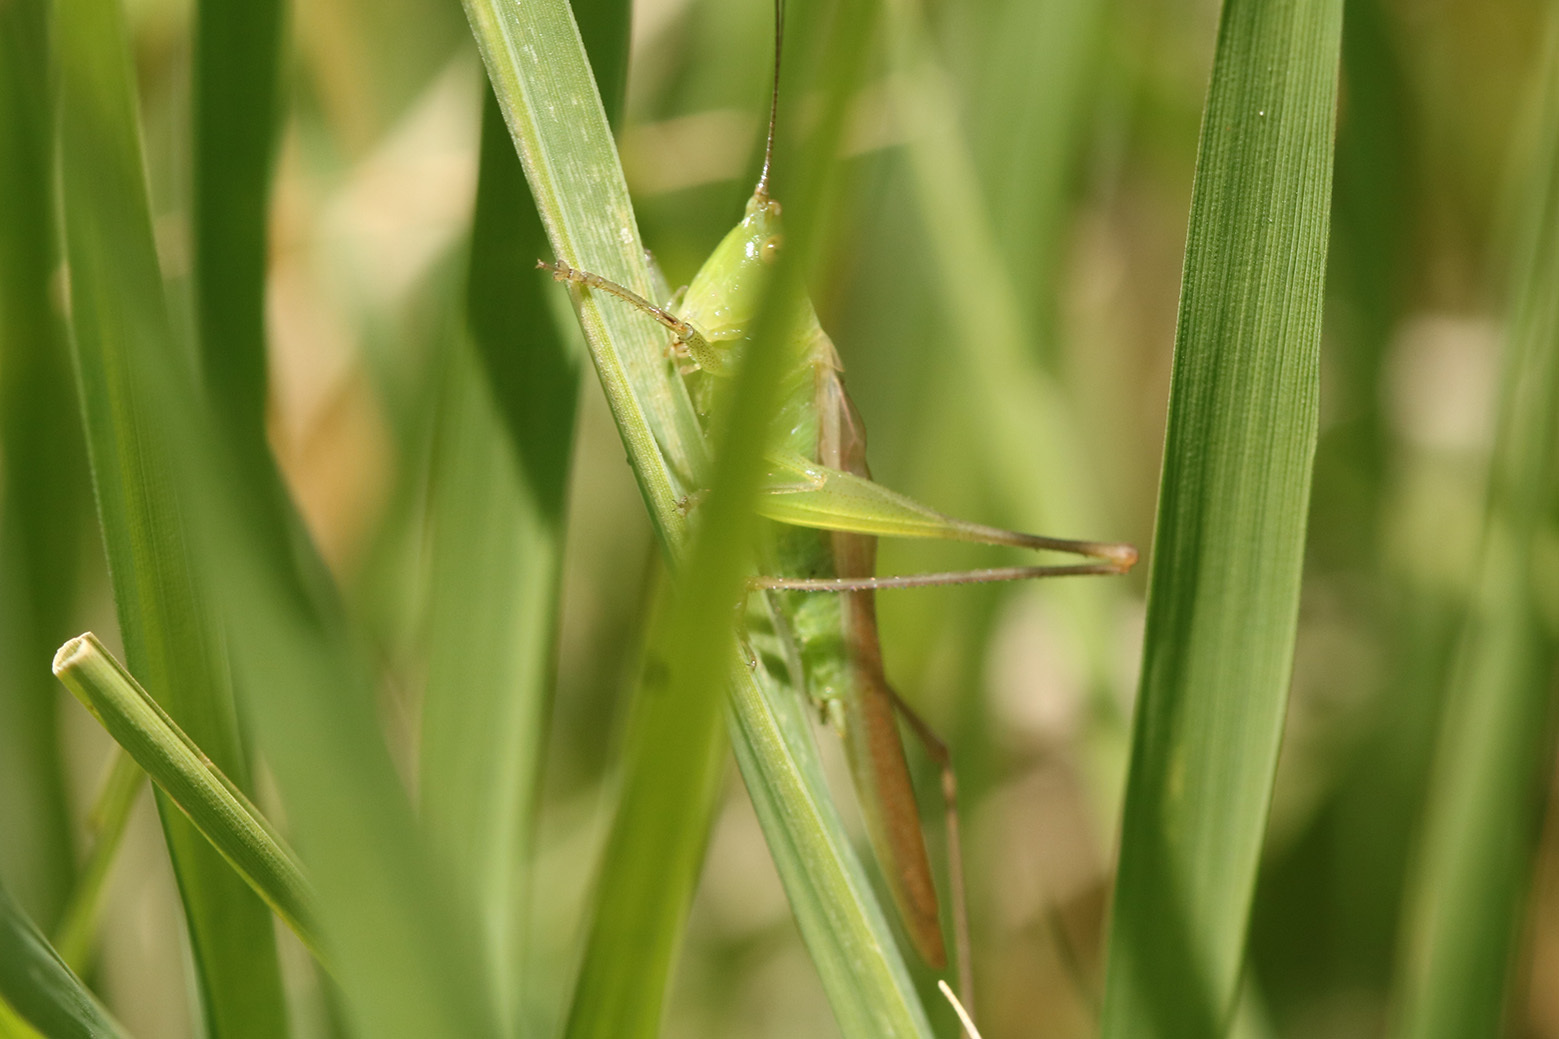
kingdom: Animalia
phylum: Arthropoda
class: Insecta
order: Orthoptera
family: Tettigoniidae
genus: Conocephalus
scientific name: Conocephalus longipes
